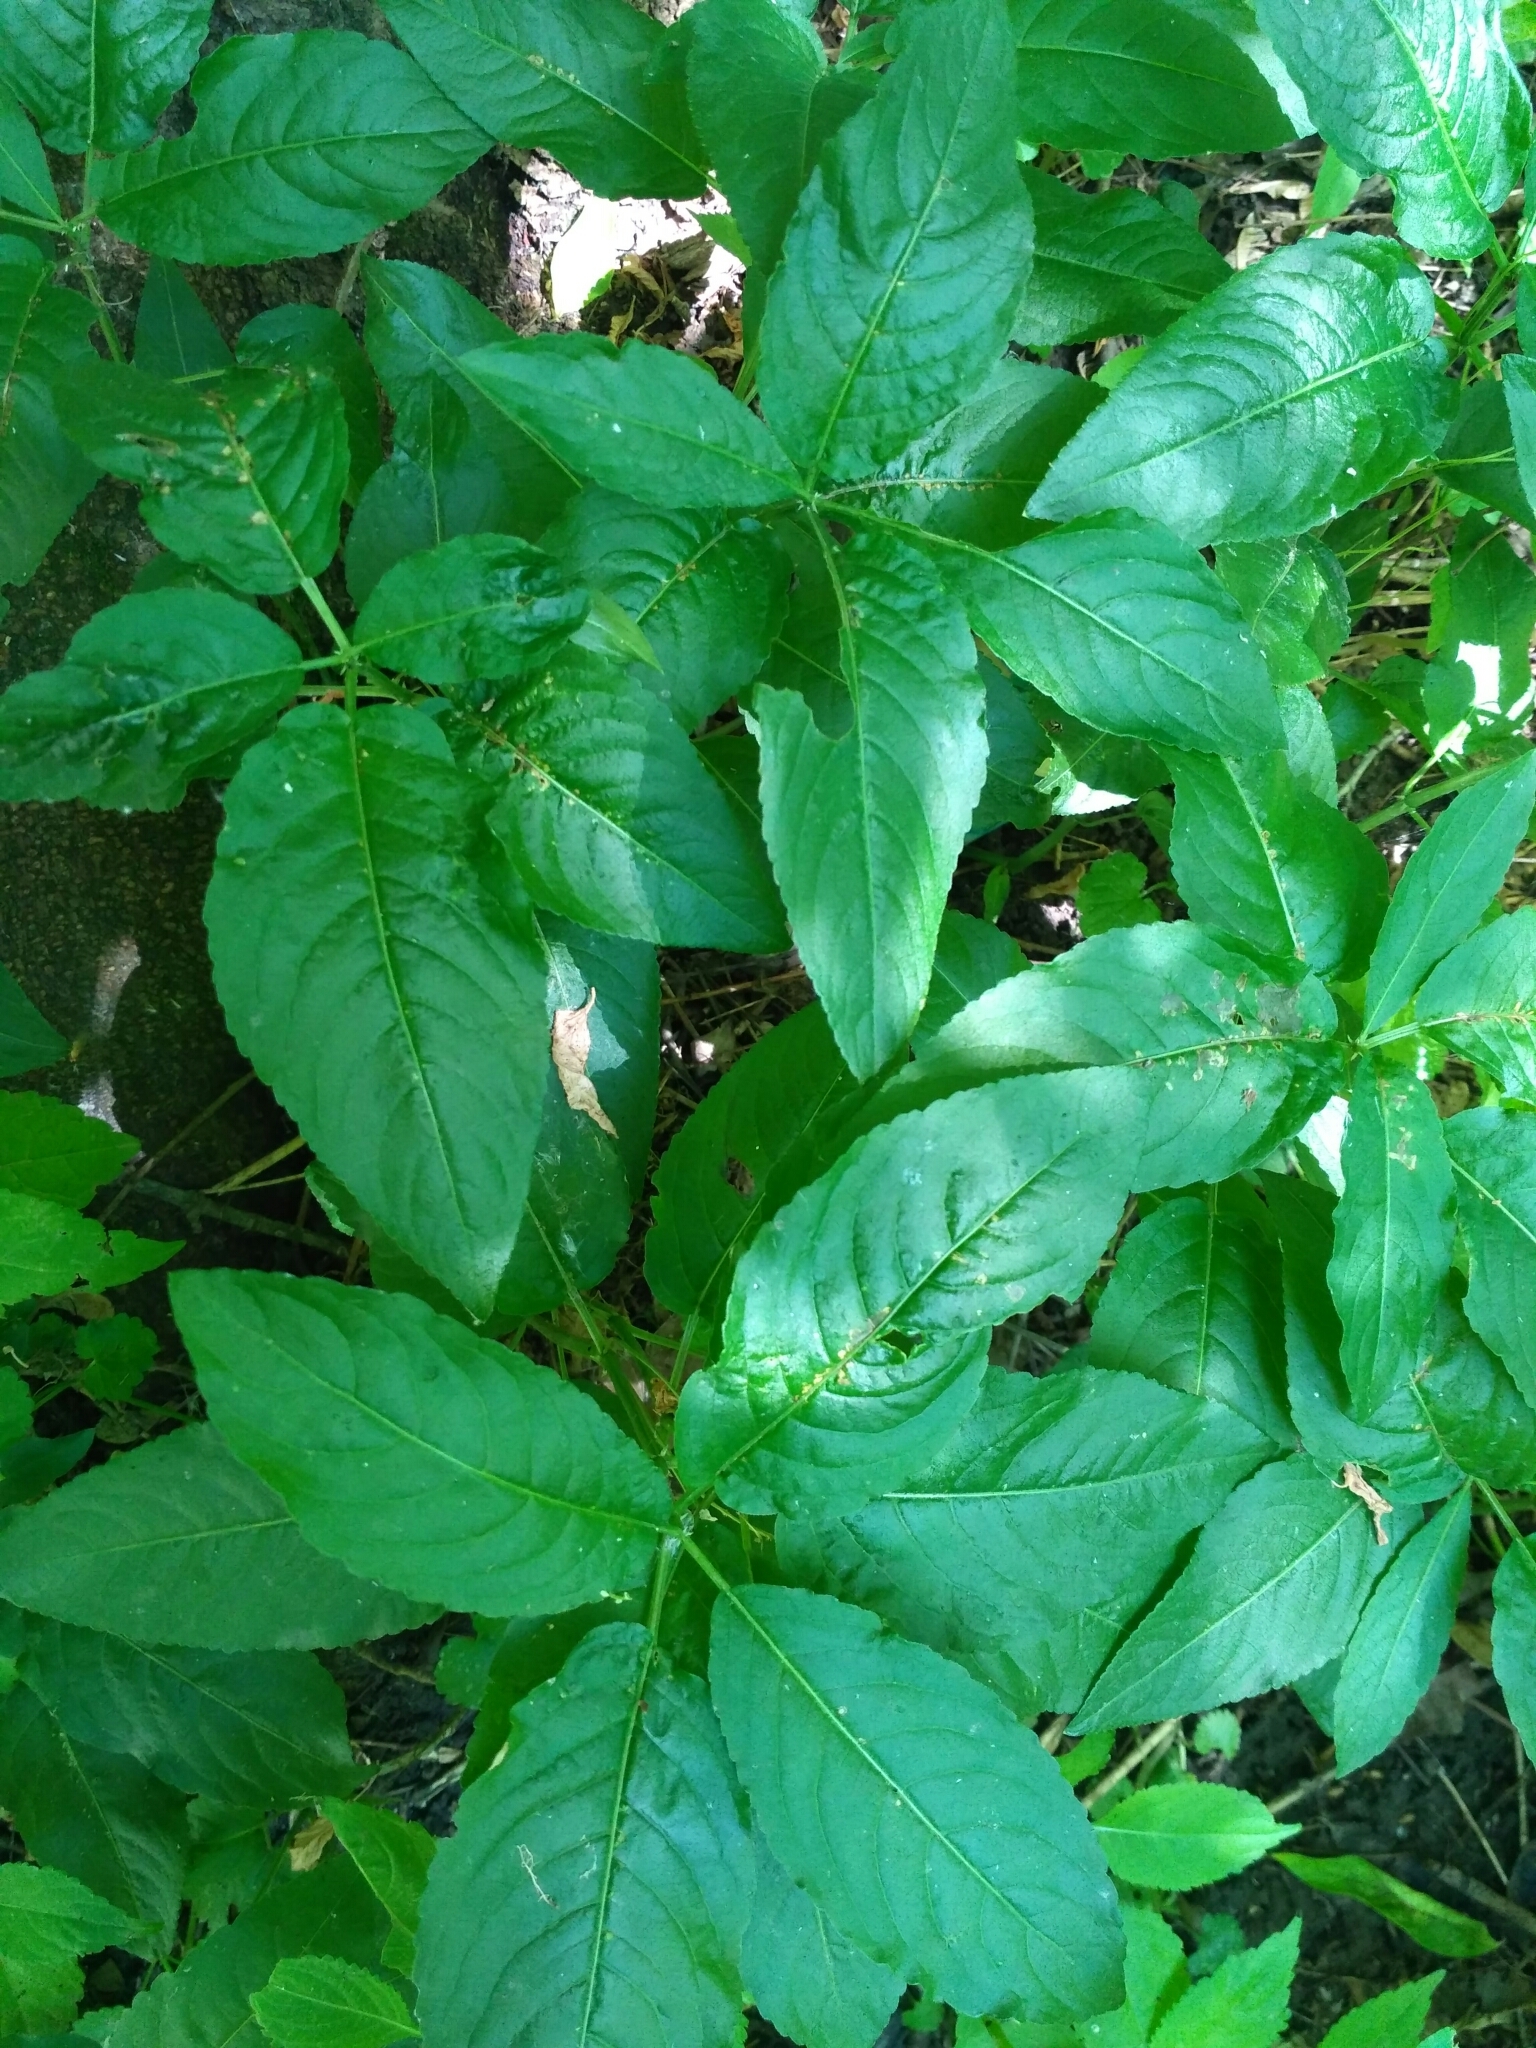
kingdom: Plantae
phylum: Tracheophyta
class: Magnoliopsida
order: Malpighiales
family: Euphorbiaceae
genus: Mercurialis
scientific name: Mercurialis perennis
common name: Dog mercury
